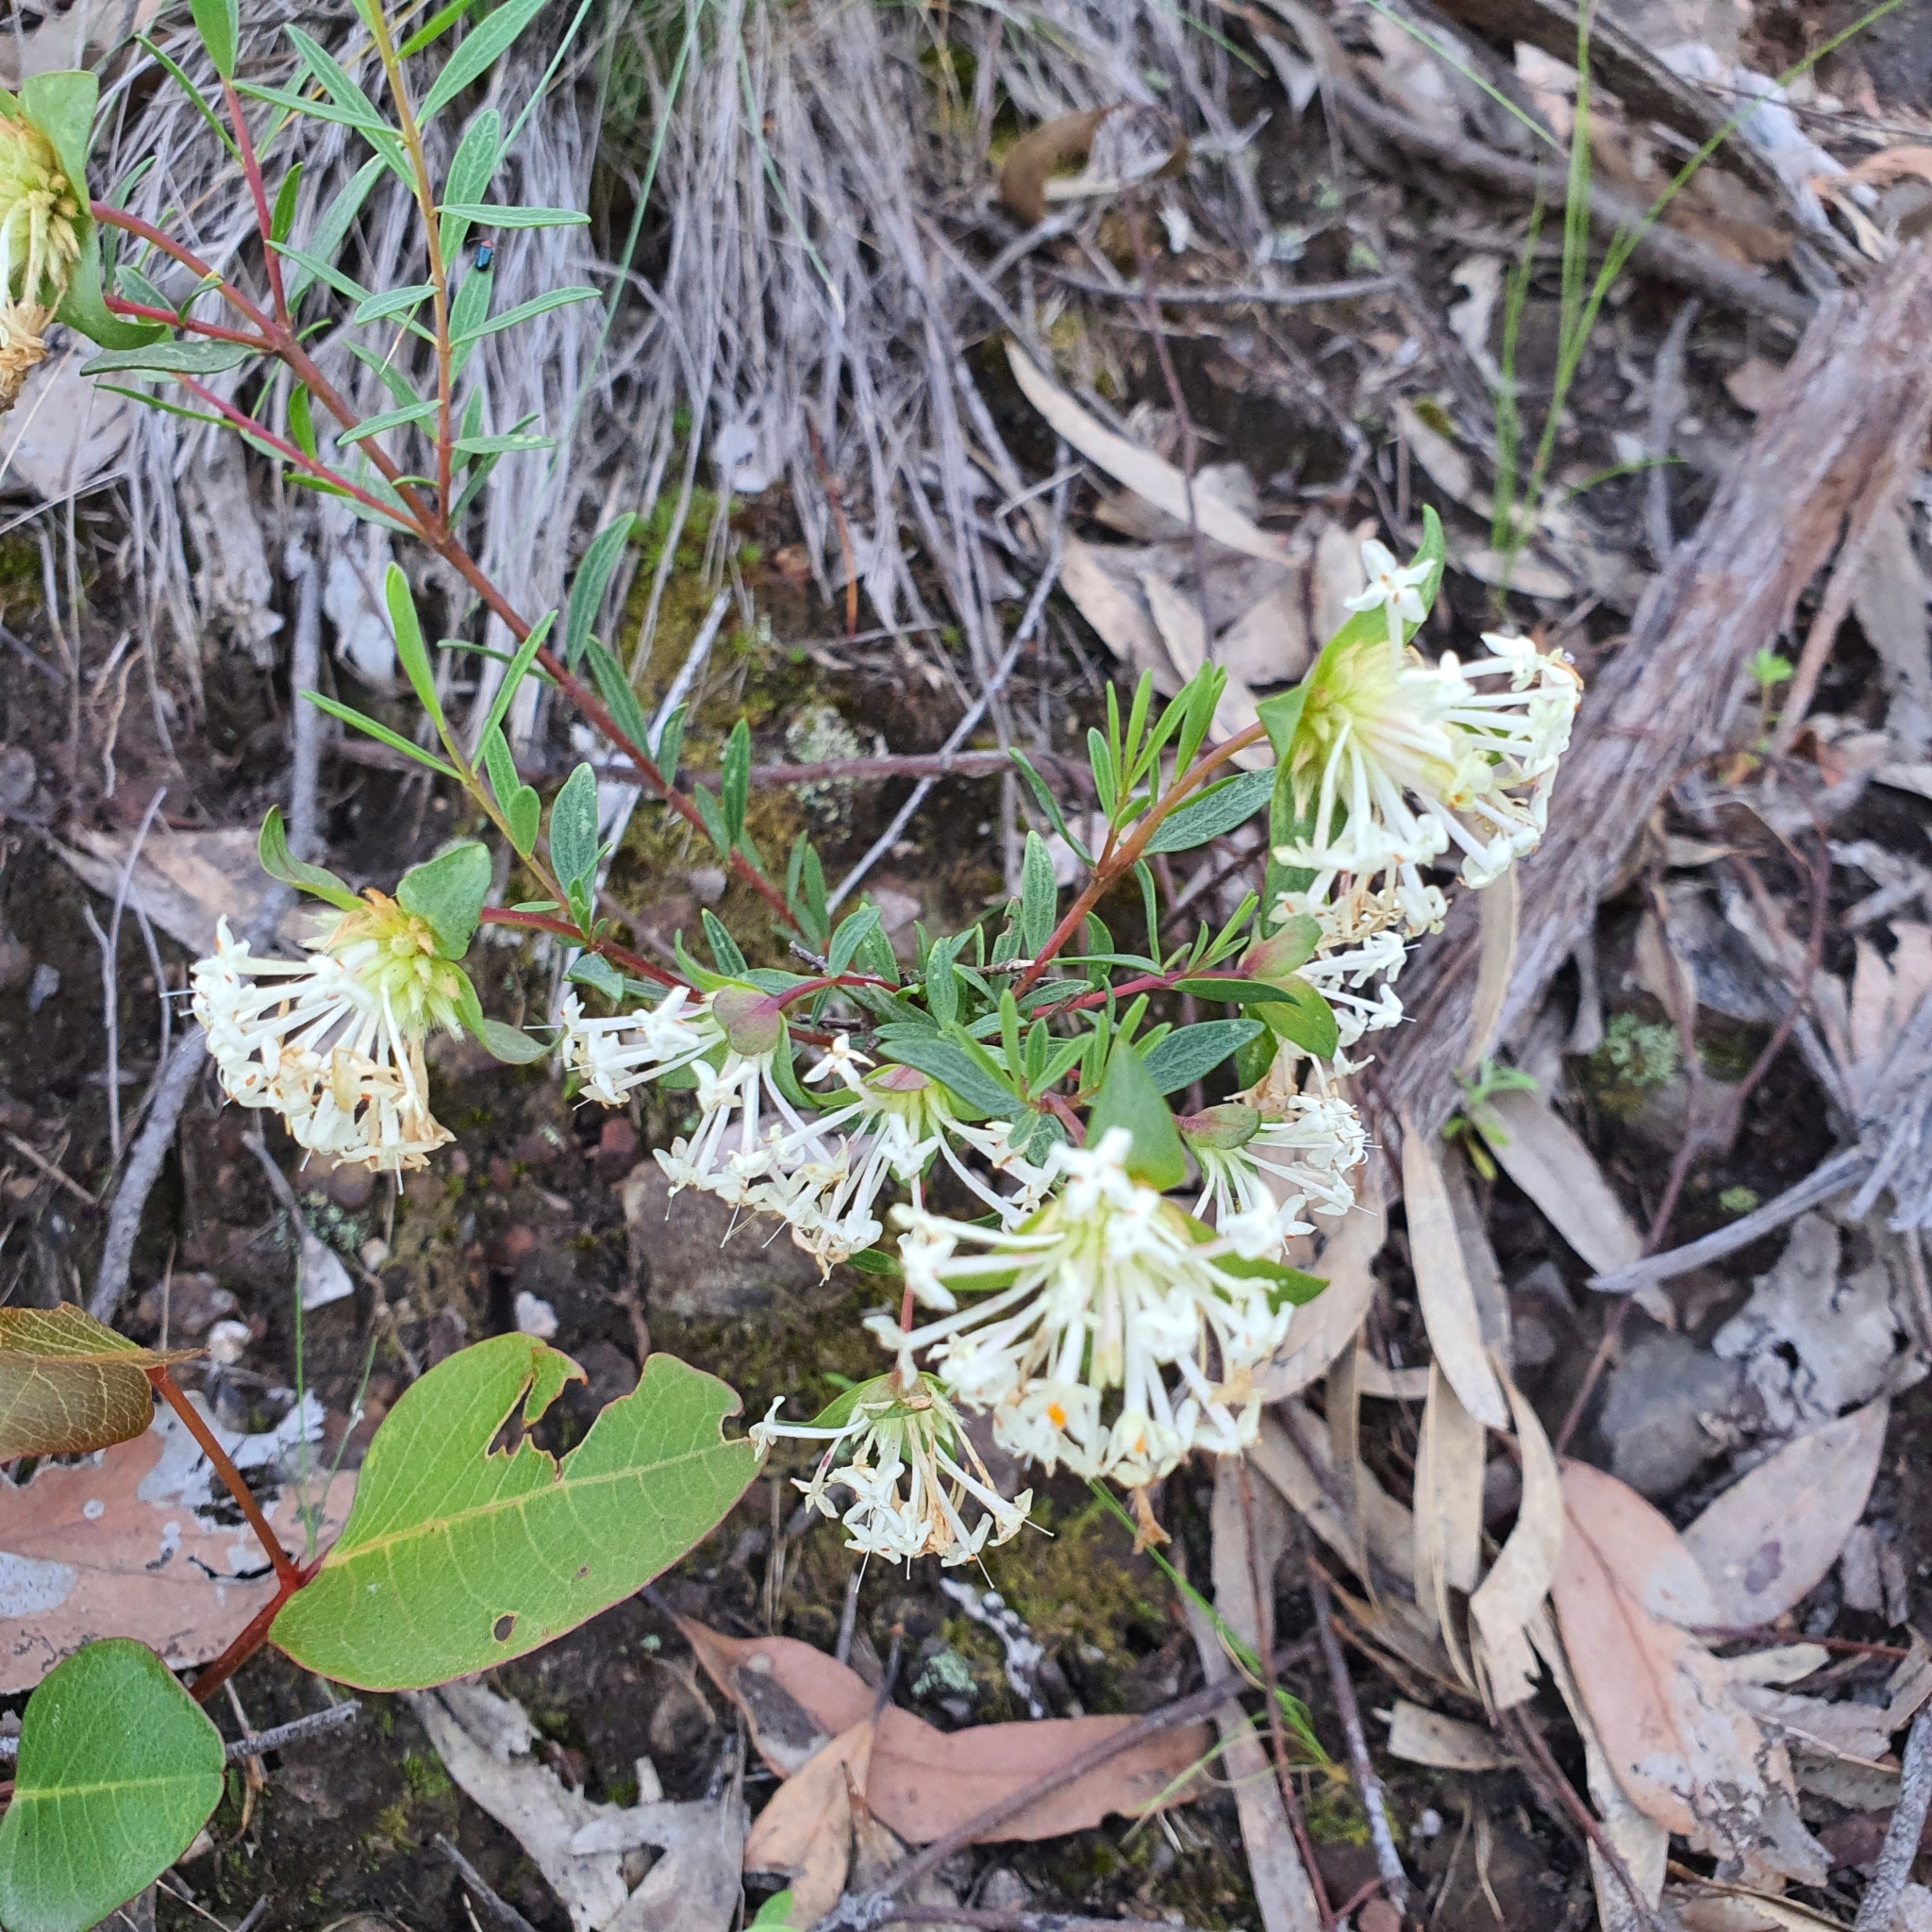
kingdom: Plantae
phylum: Tracheophyta
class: Magnoliopsida
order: Malvales
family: Thymelaeaceae
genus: Pimelea
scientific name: Pimelea linifolia
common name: Queen-of-the-bush
